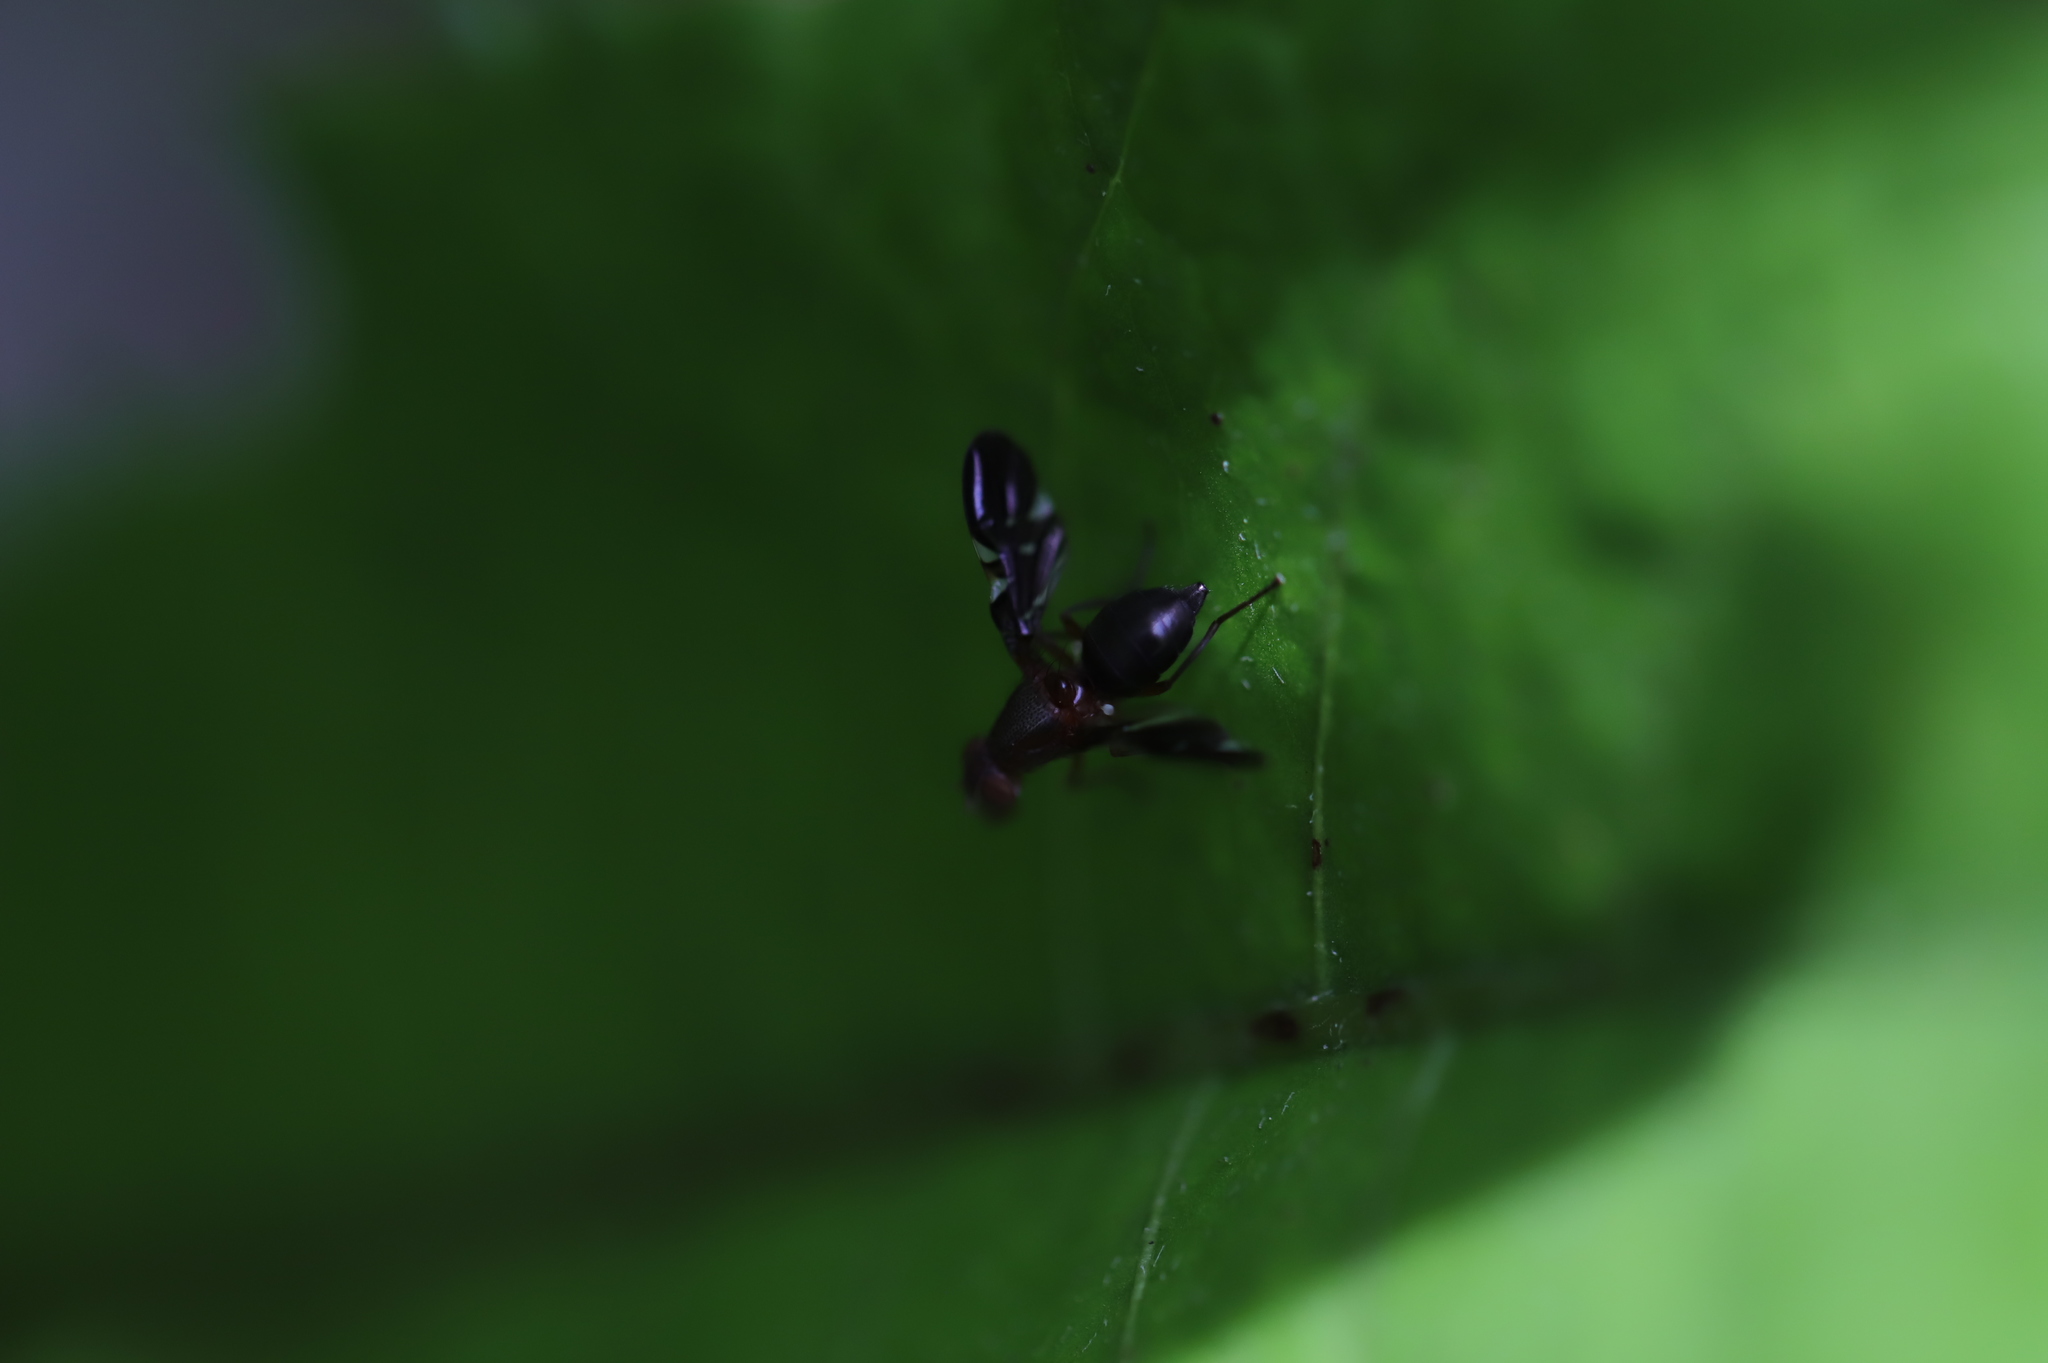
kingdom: Animalia
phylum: Arthropoda
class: Insecta
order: Diptera
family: Ulidiidae
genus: Delphinia
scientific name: Delphinia picta
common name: Common picture-winged fly
